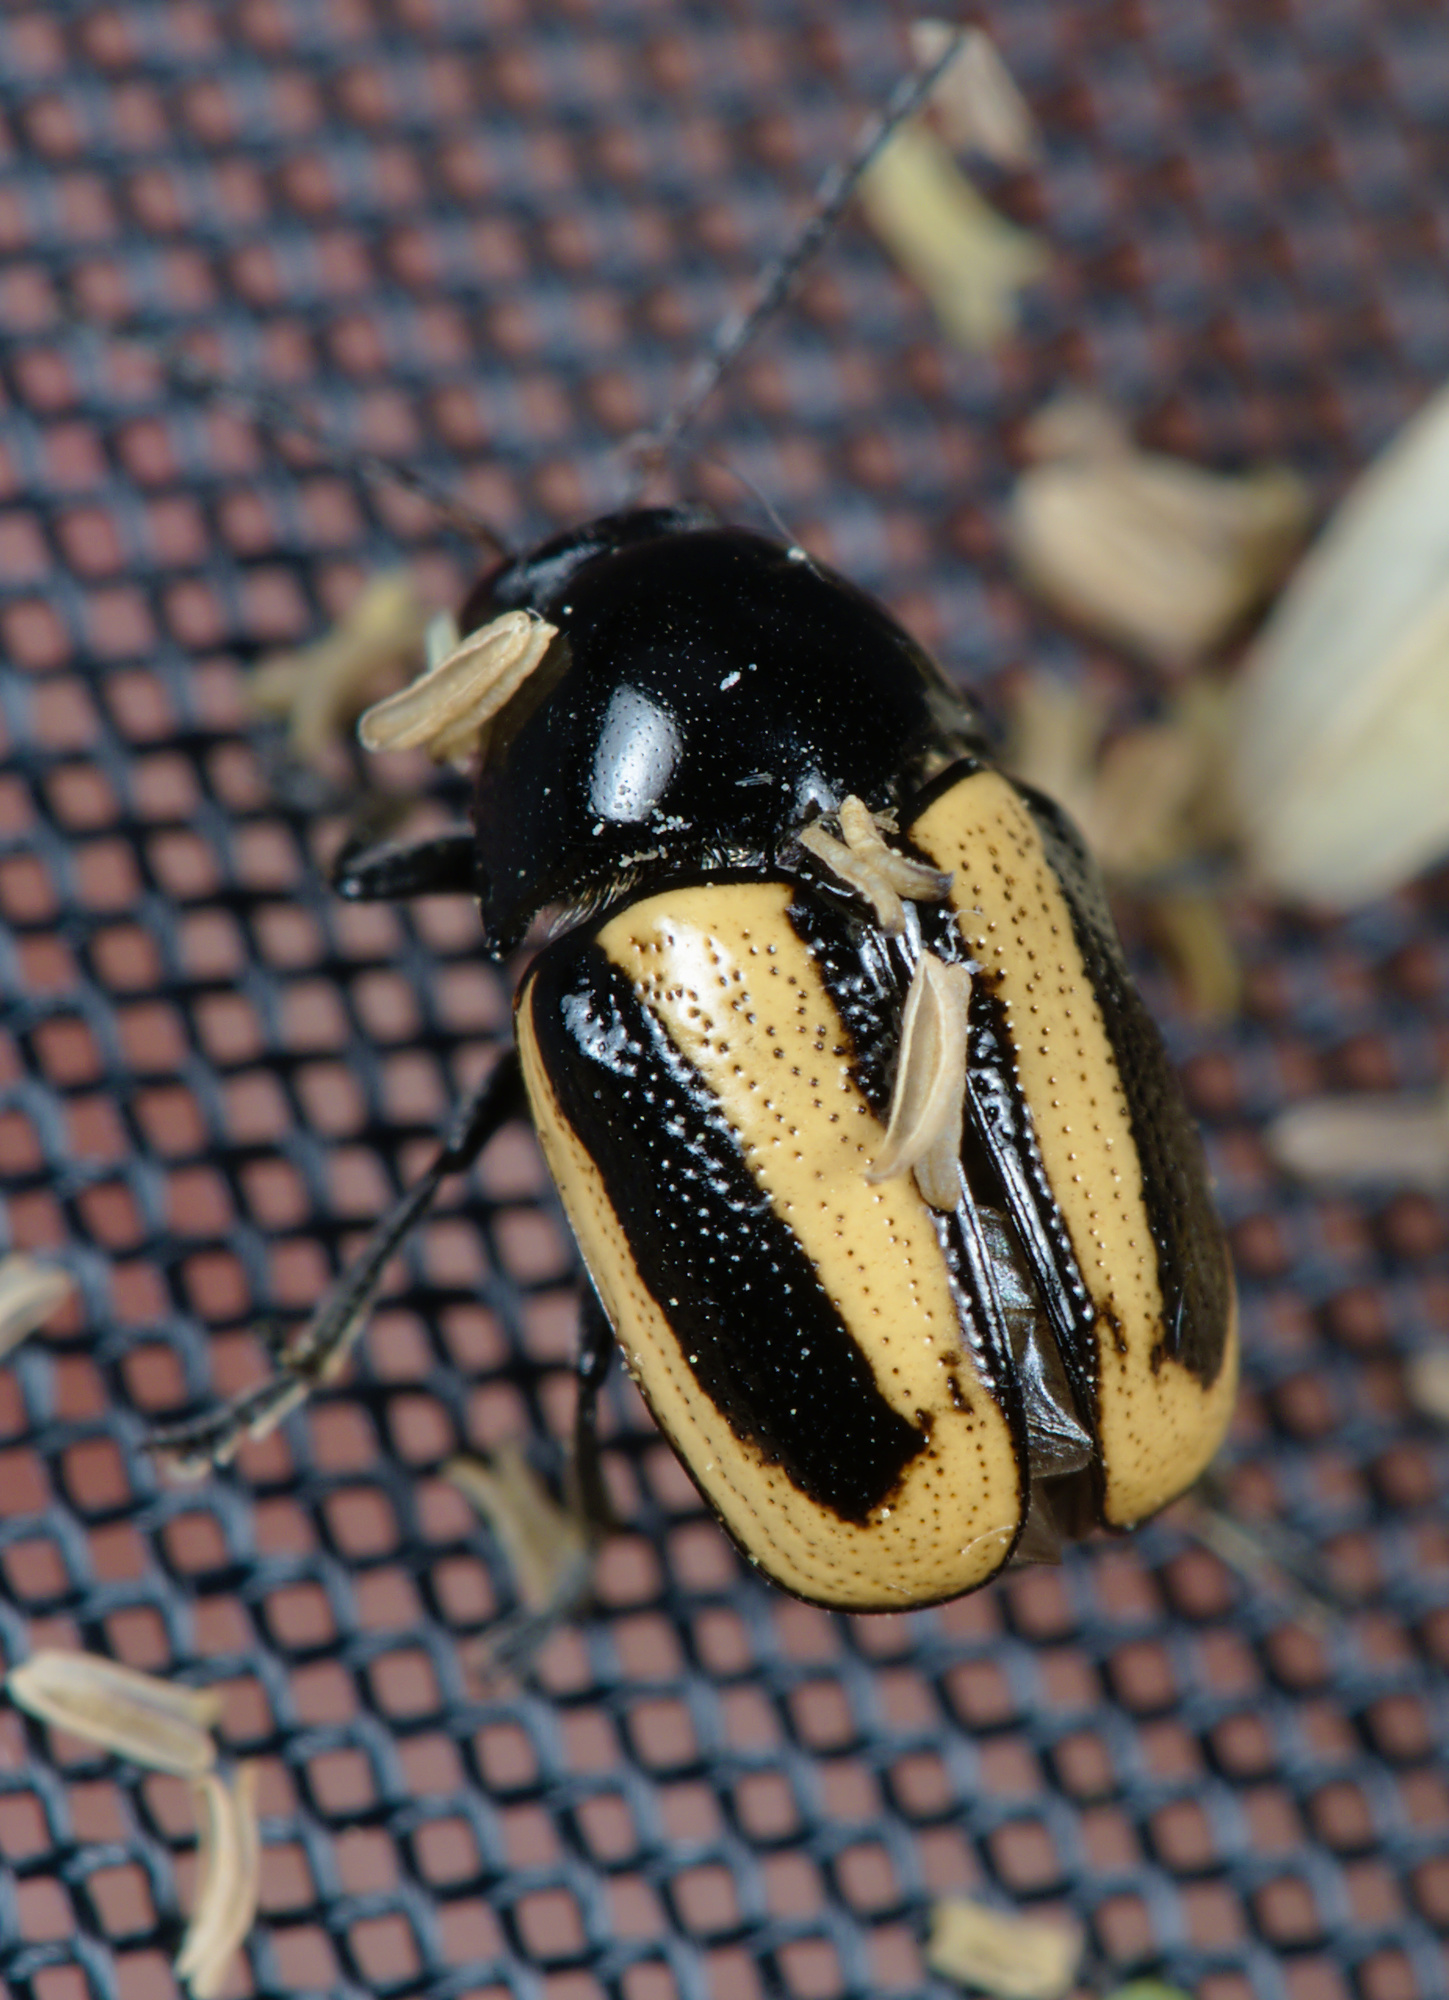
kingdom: Animalia
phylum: Arthropoda
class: Insecta
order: Coleoptera
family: Chrysomelidae
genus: Acalymma
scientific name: Acalymma vittatum
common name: Striped cucumber beetle
